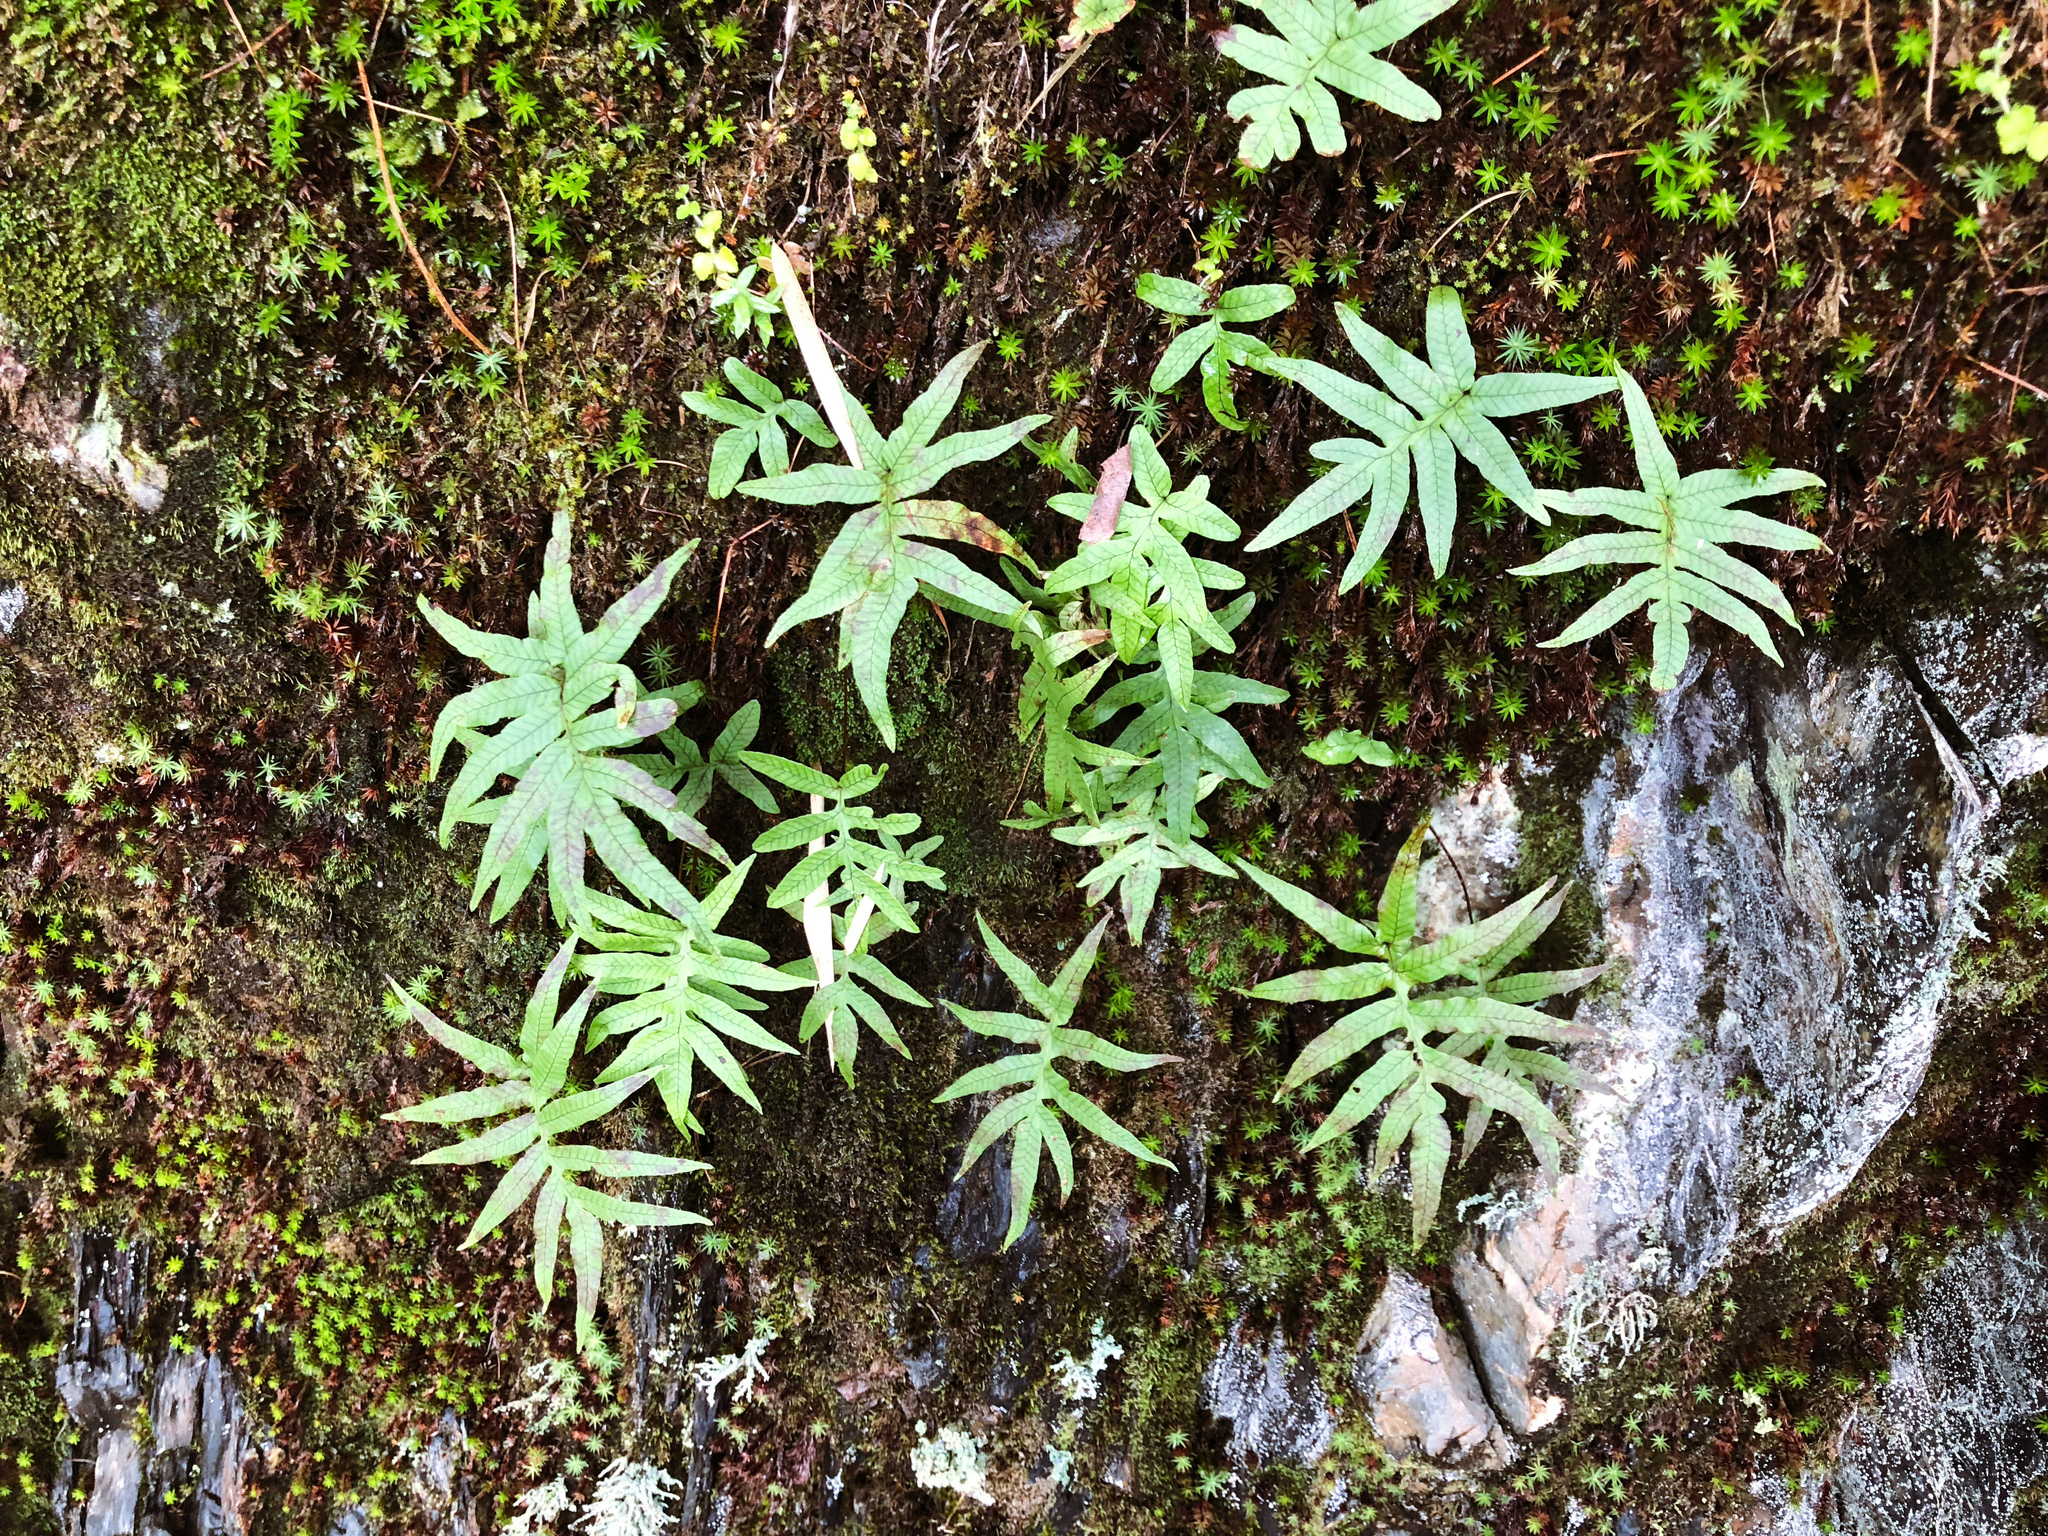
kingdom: Plantae
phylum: Tracheophyta
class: Polypodiopsida
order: Polypodiales
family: Polypodiaceae
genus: Selliguea
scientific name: Selliguea quasidivaricata
